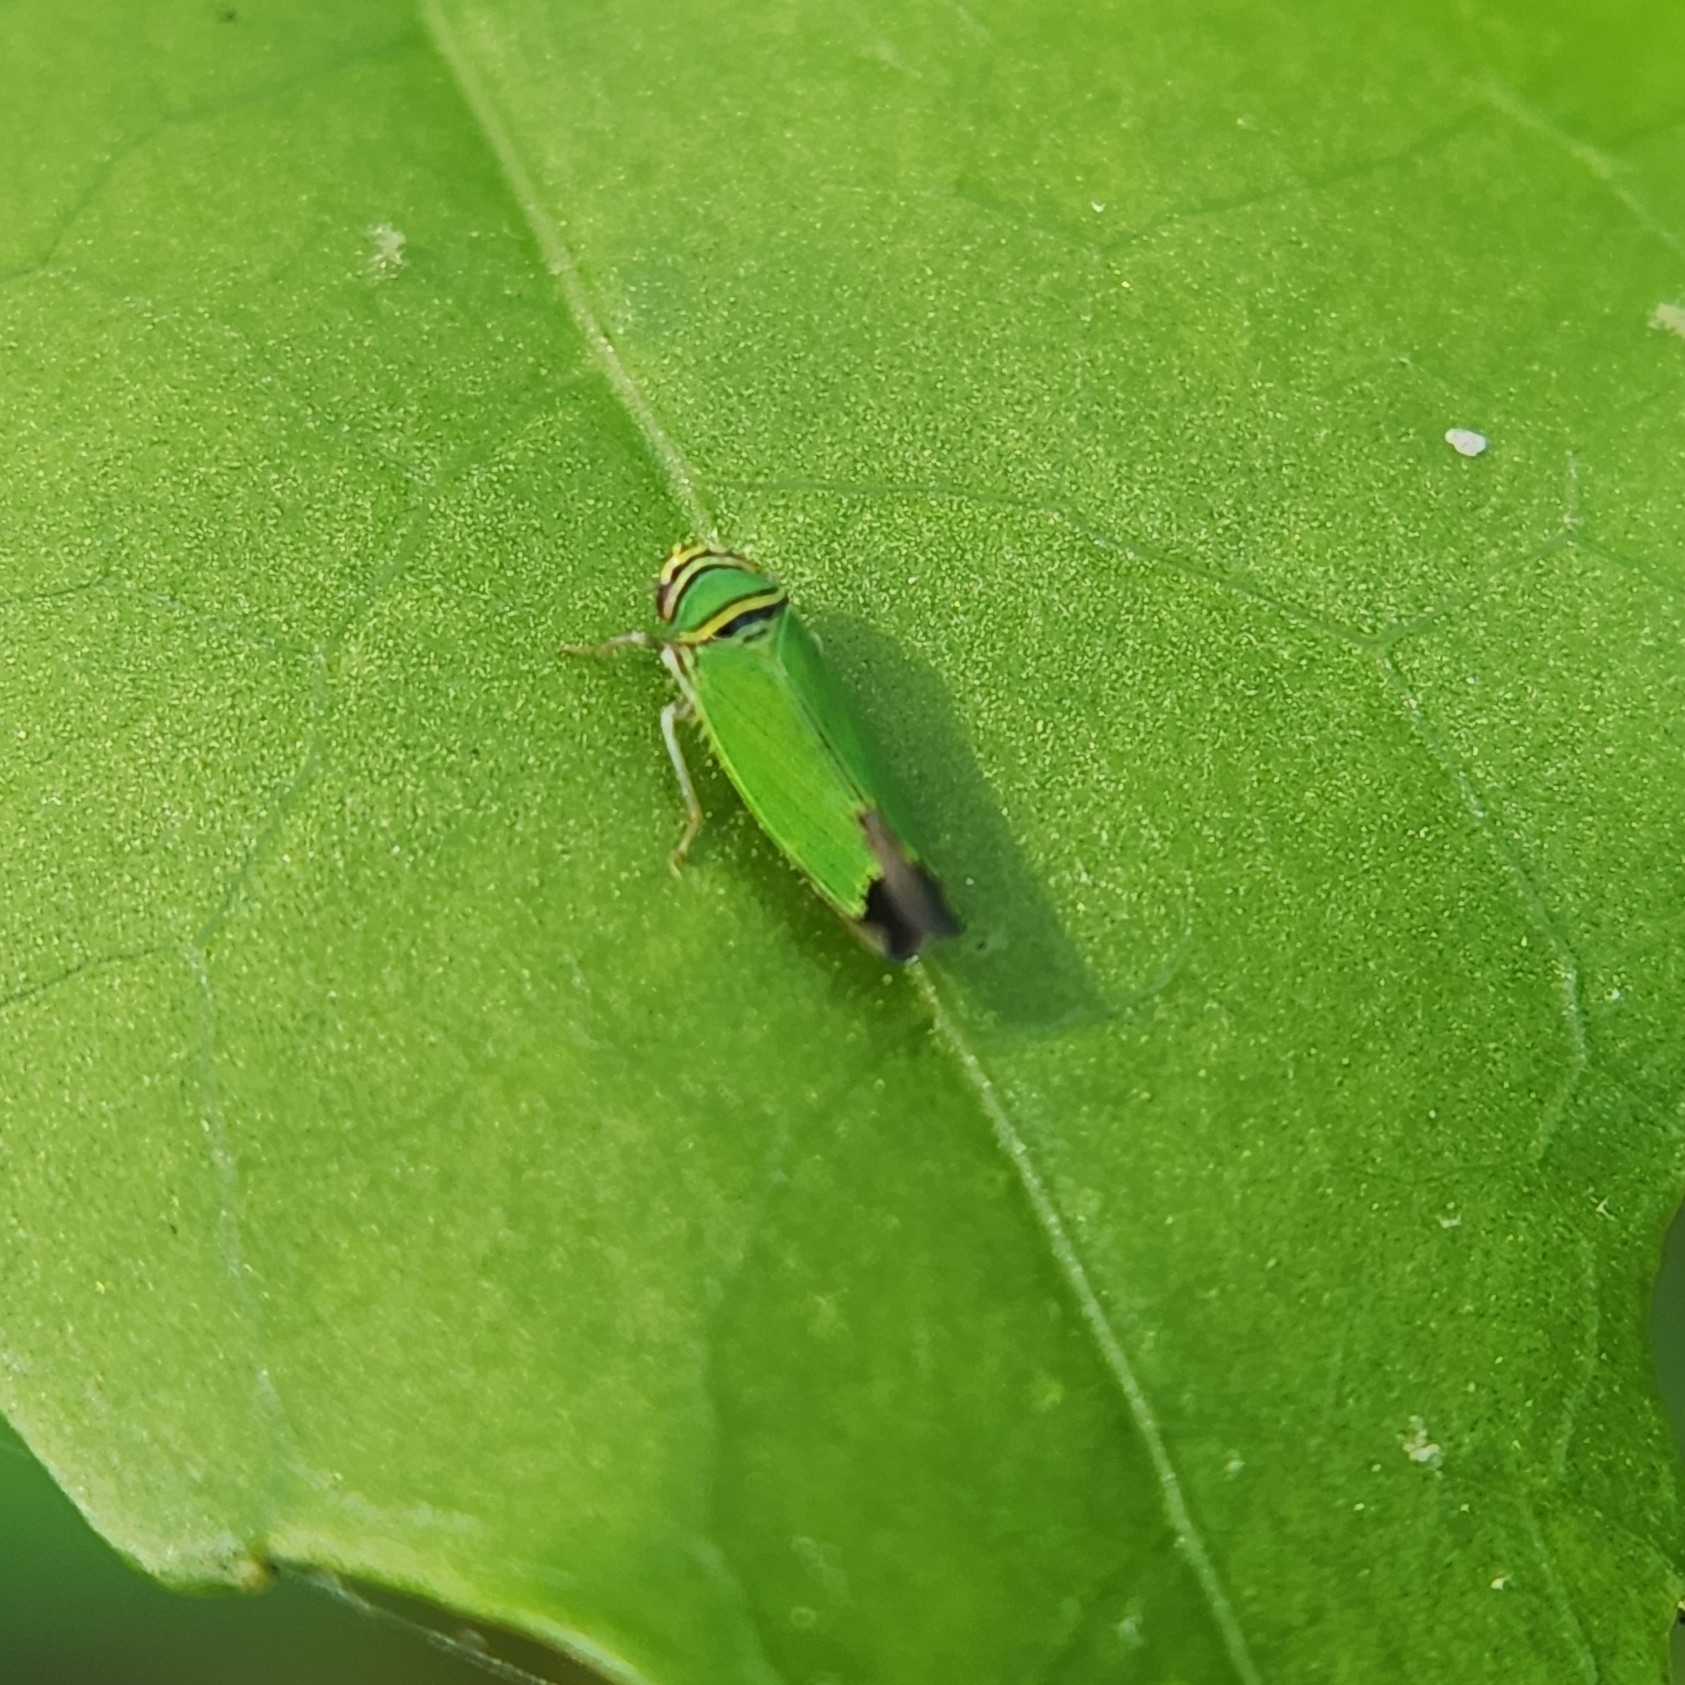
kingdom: Animalia
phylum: Arthropoda
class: Insecta
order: Hemiptera
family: Cicadellidae
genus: Tylozygus
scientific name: Tylozygus geometricus
